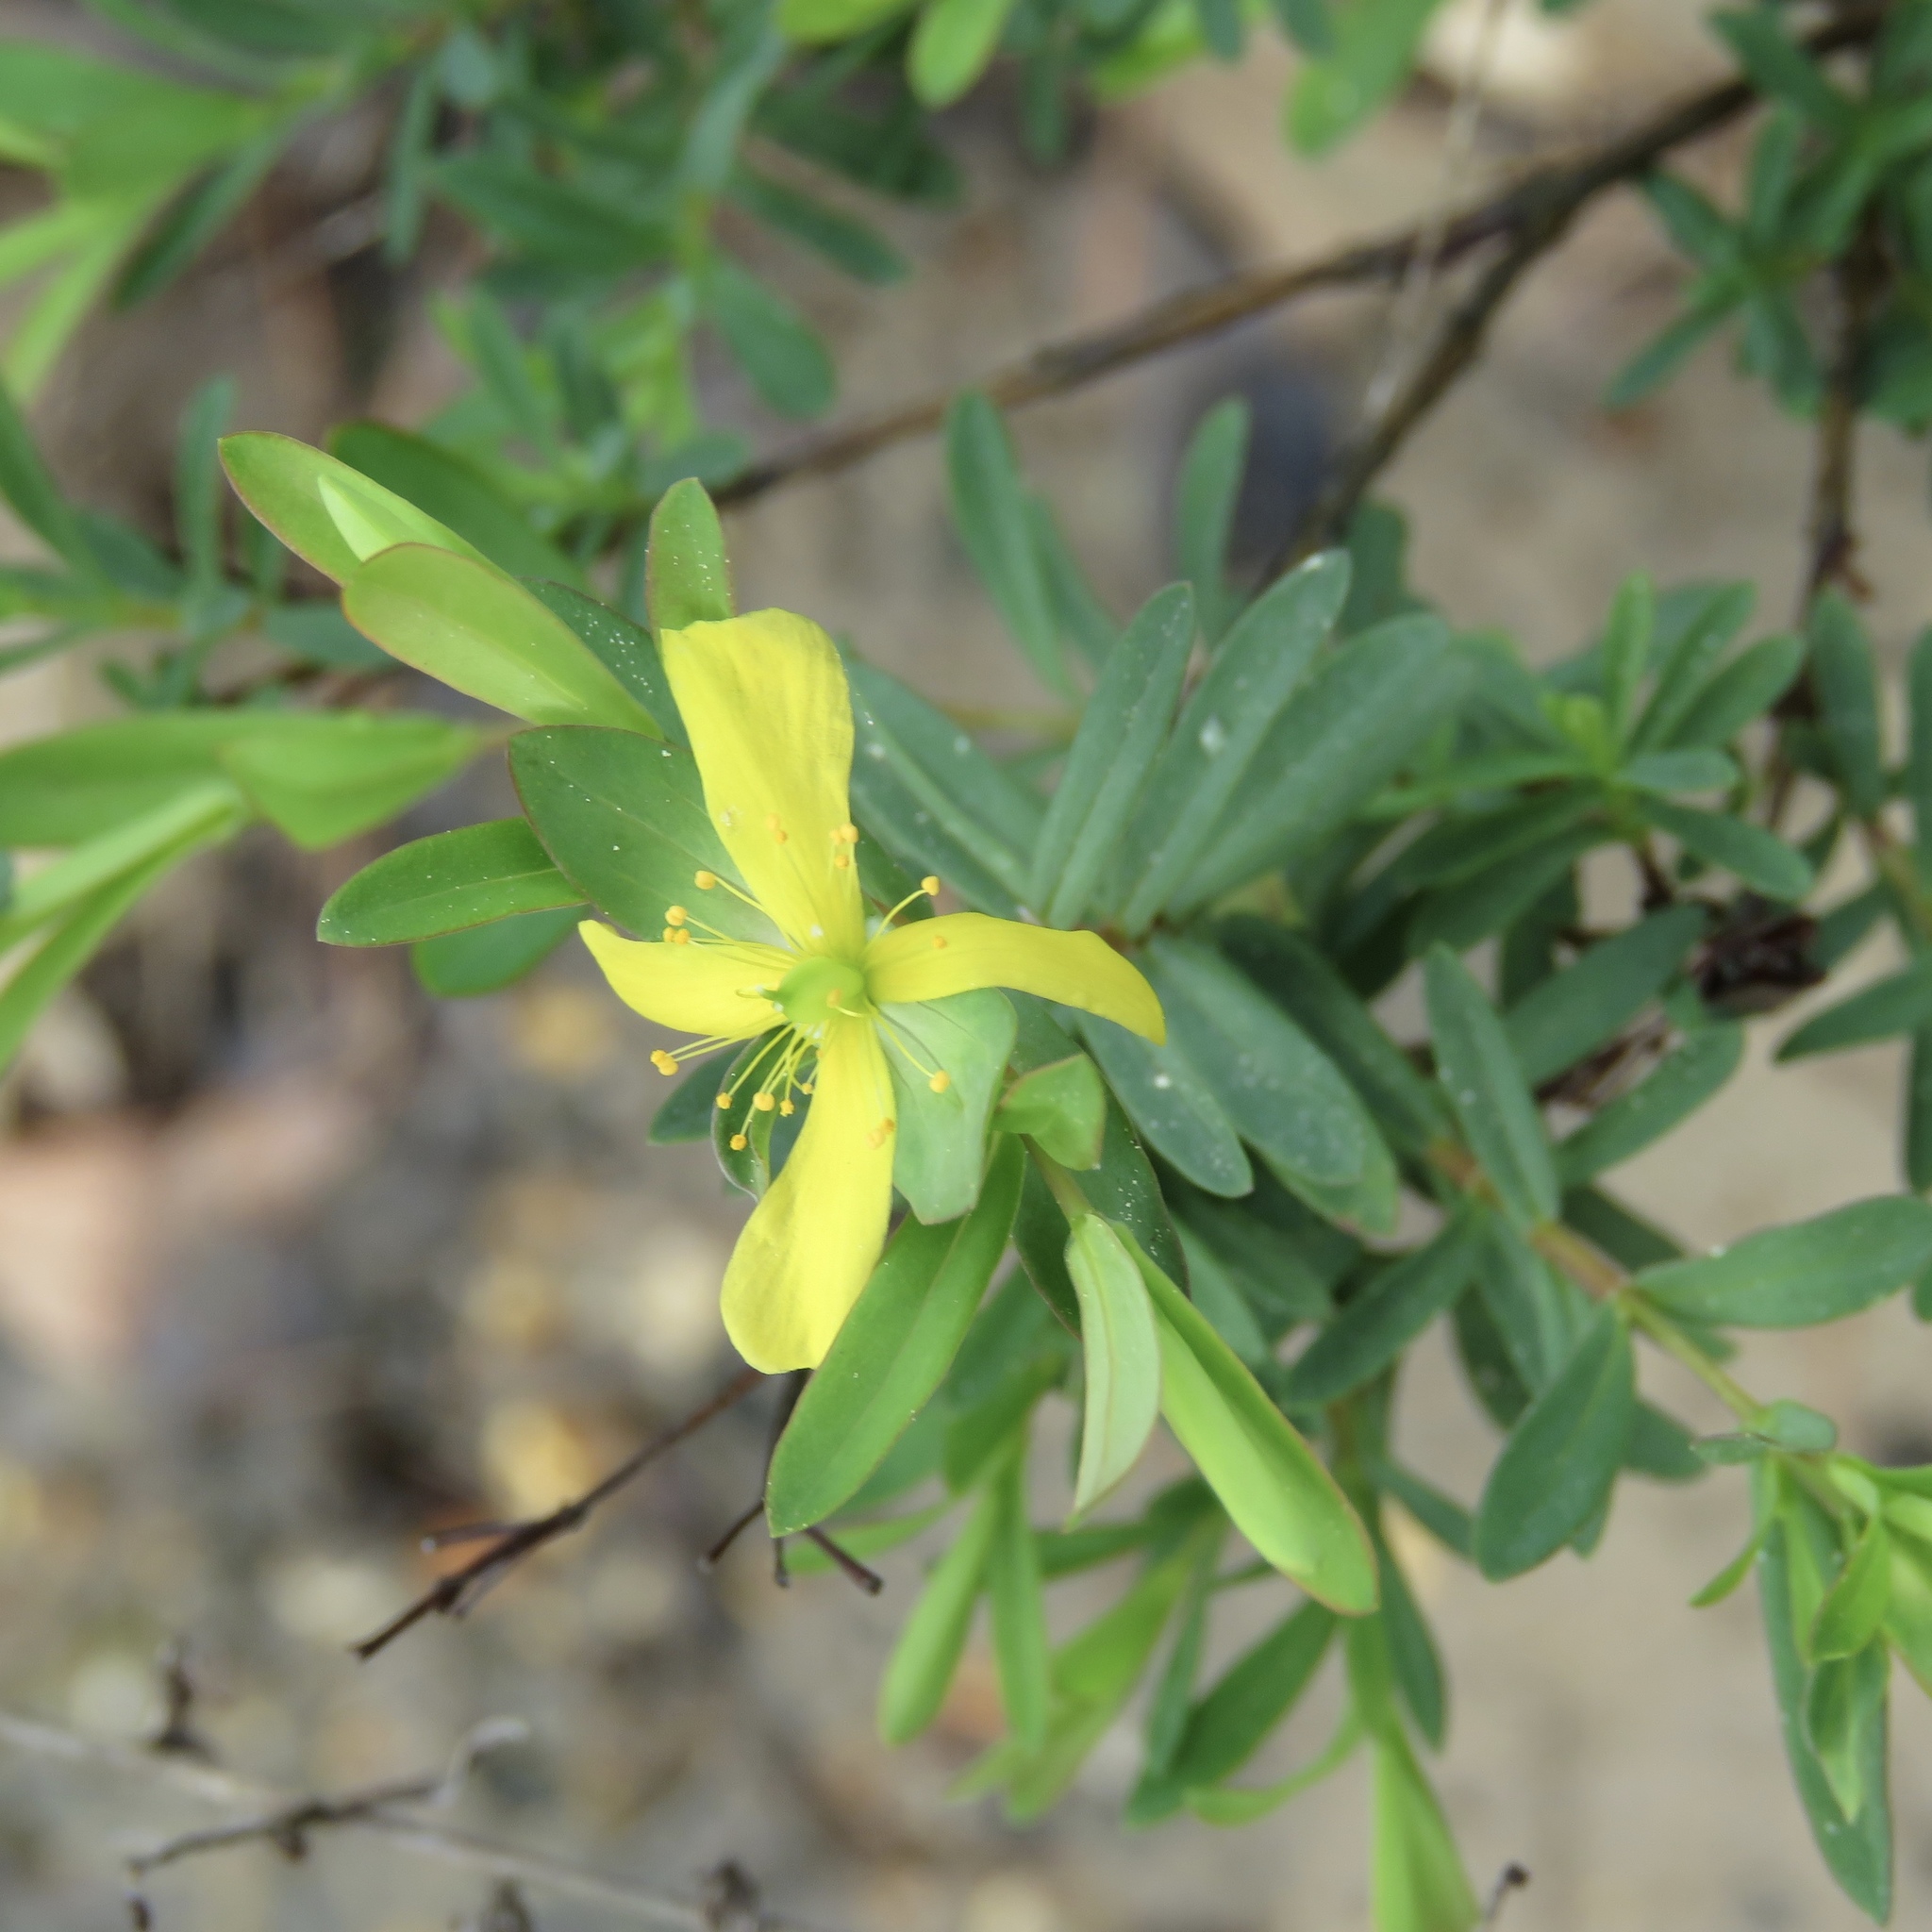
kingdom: Plantae
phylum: Tracheophyta
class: Magnoliopsida
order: Malpighiales
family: Hypericaceae
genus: Hypericum
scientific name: Hypericum hypericoides
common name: St. andrew's cross
